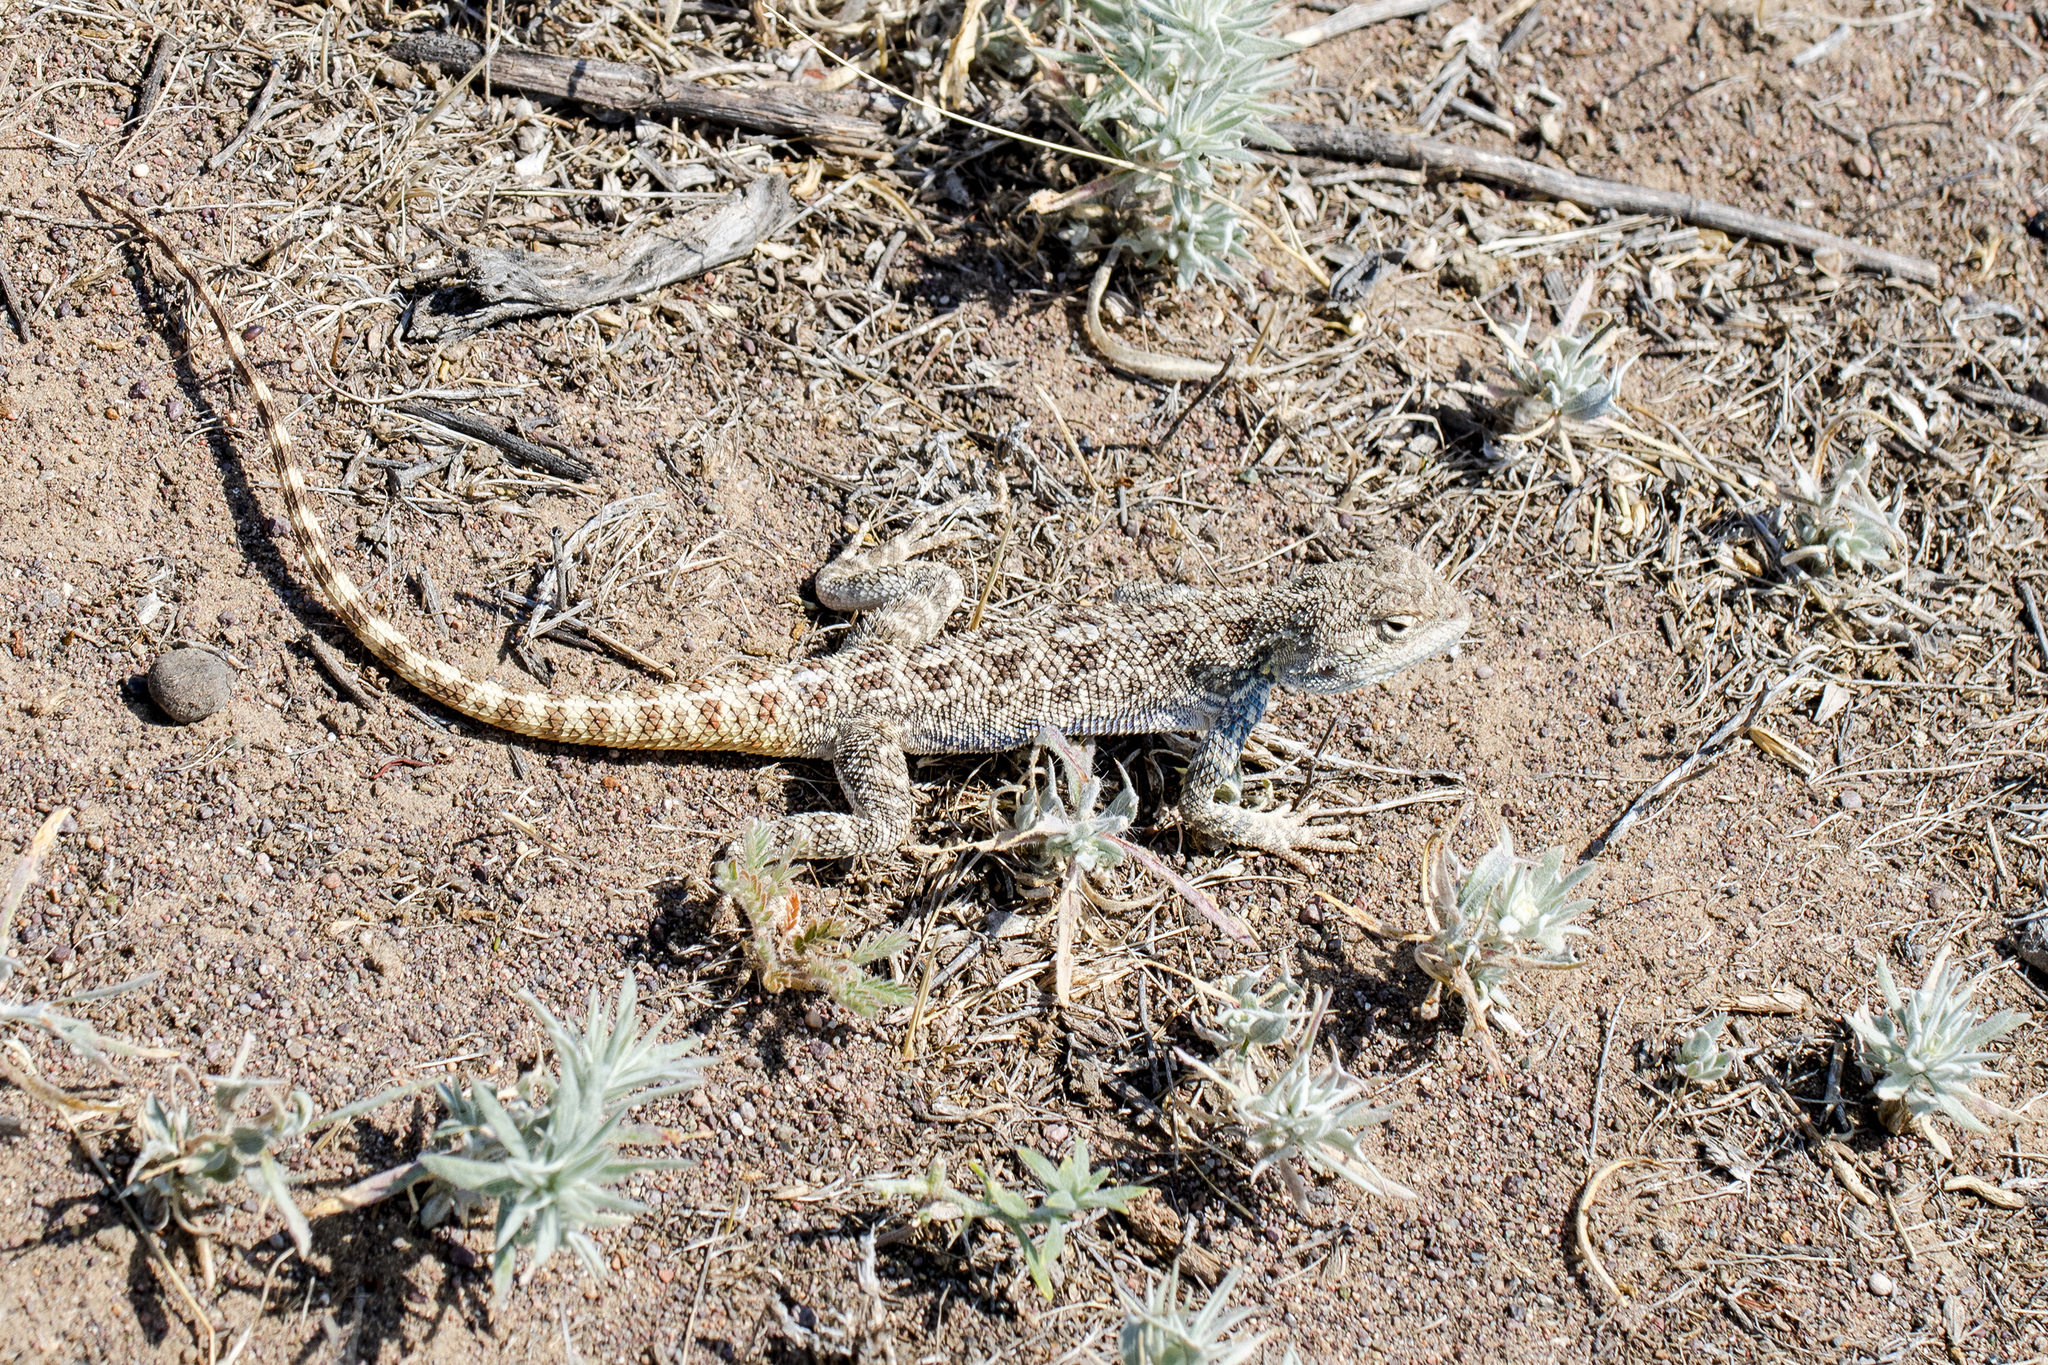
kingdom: Animalia
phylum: Chordata
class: Squamata
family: Agamidae
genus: Trapelus
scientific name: Trapelus sanguinolentus
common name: Steppe agama
